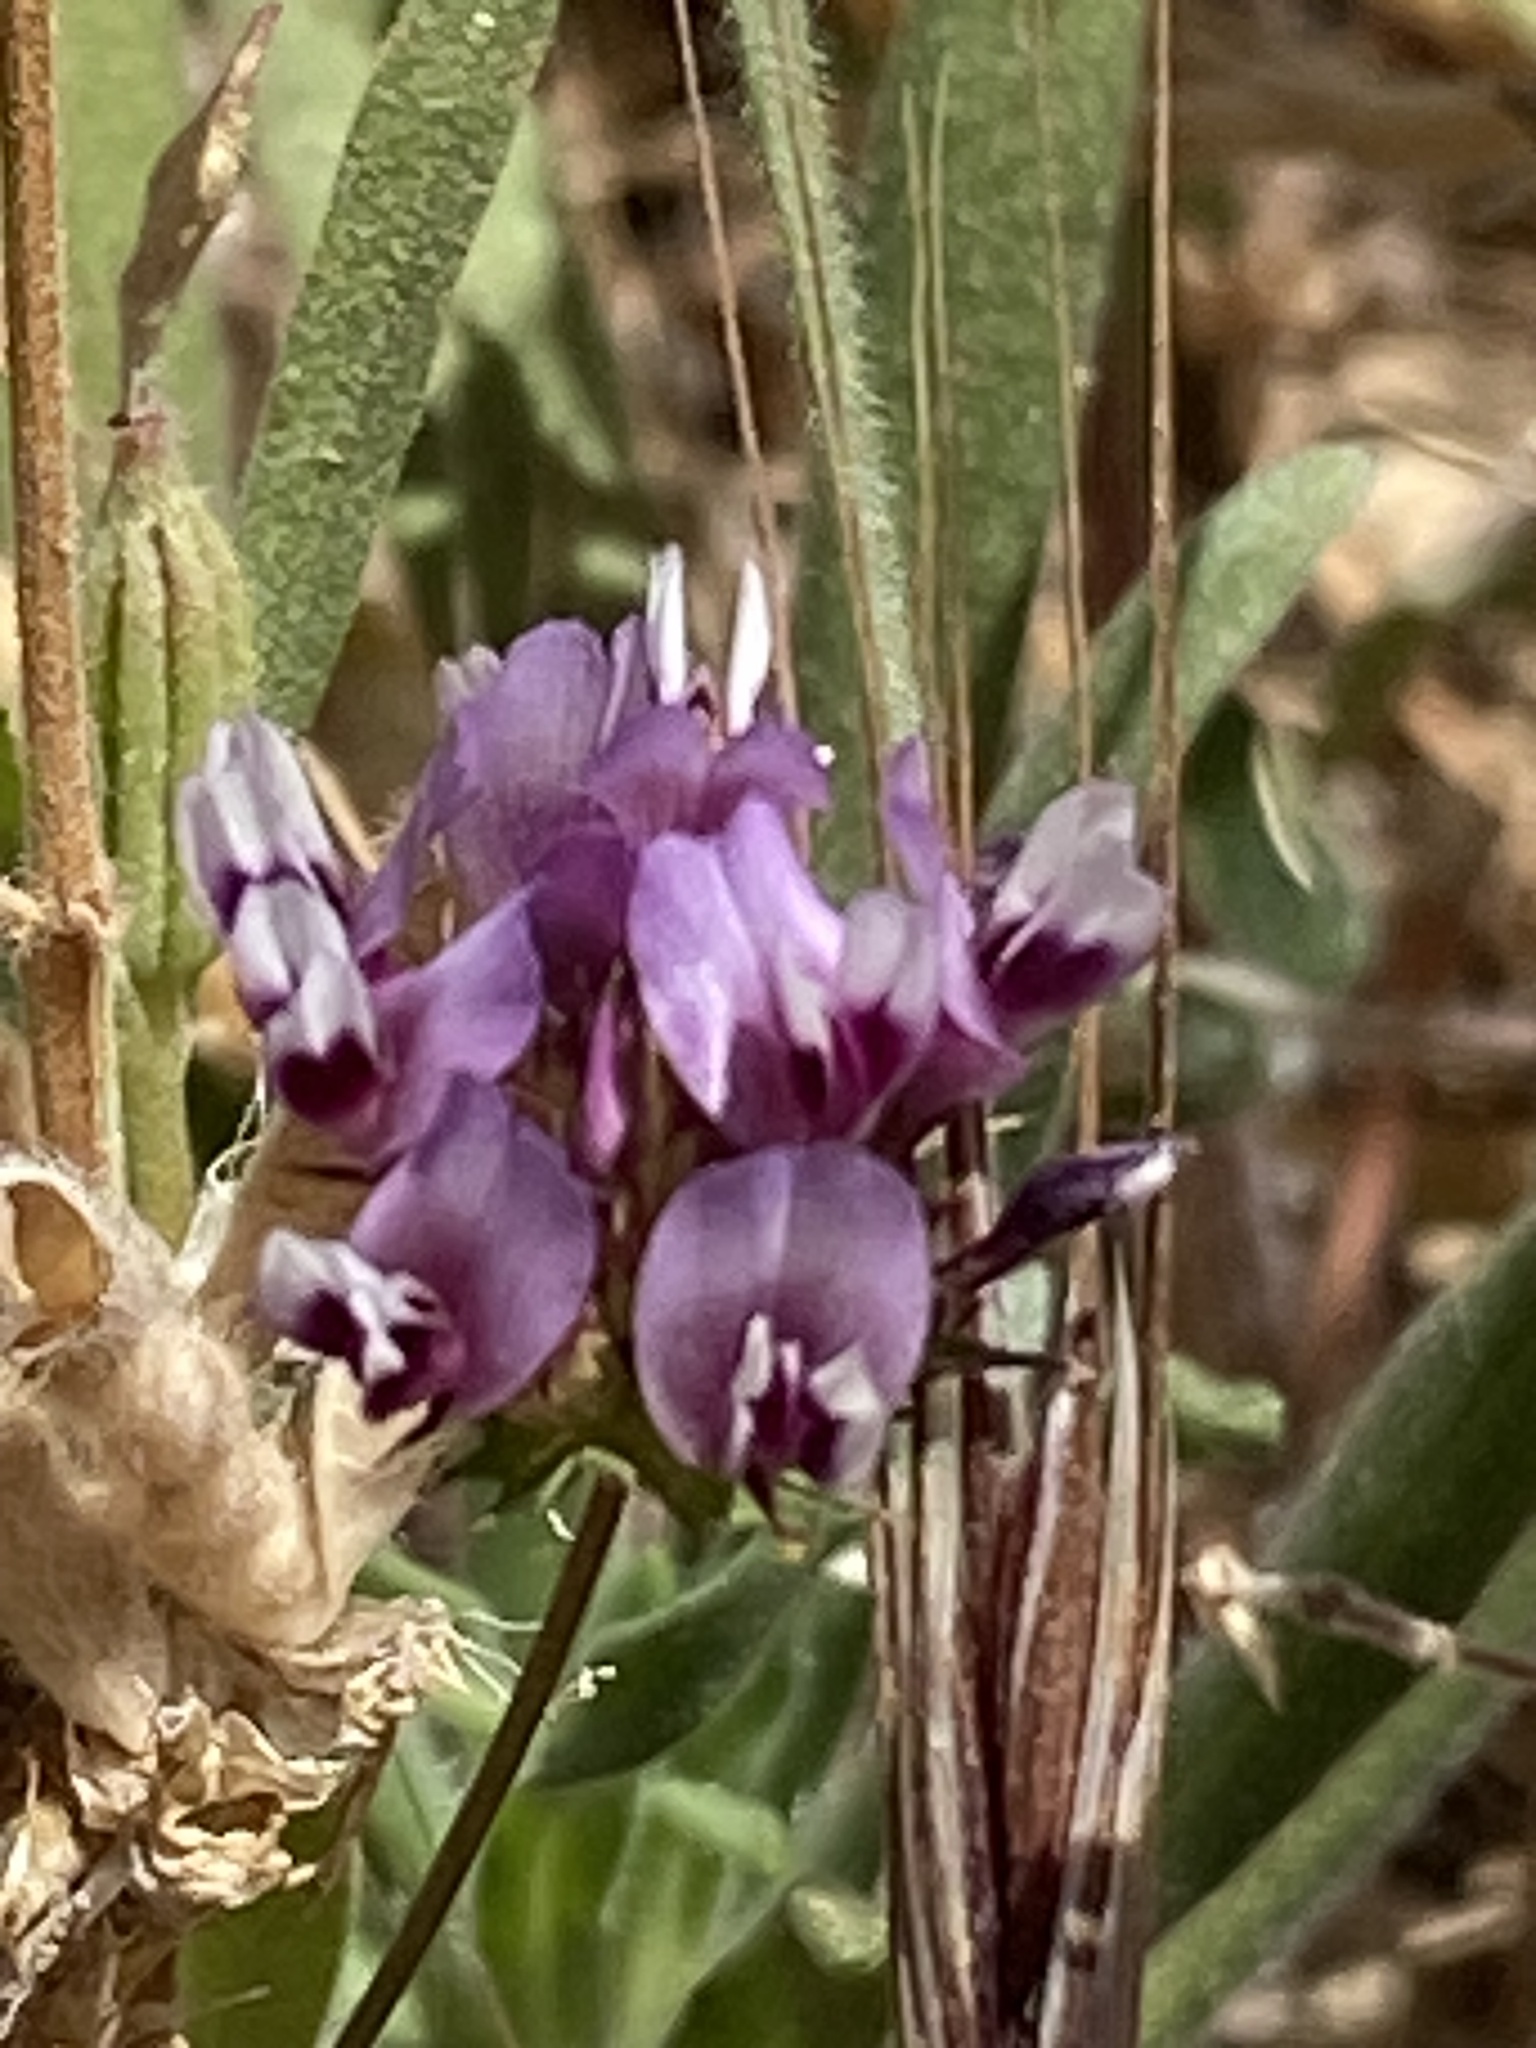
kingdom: Plantae
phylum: Tracheophyta
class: Magnoliopsida
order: Fabales
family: Fabaceae
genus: Trifolium
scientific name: Trifolium willdenovii
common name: Tomcat clover
